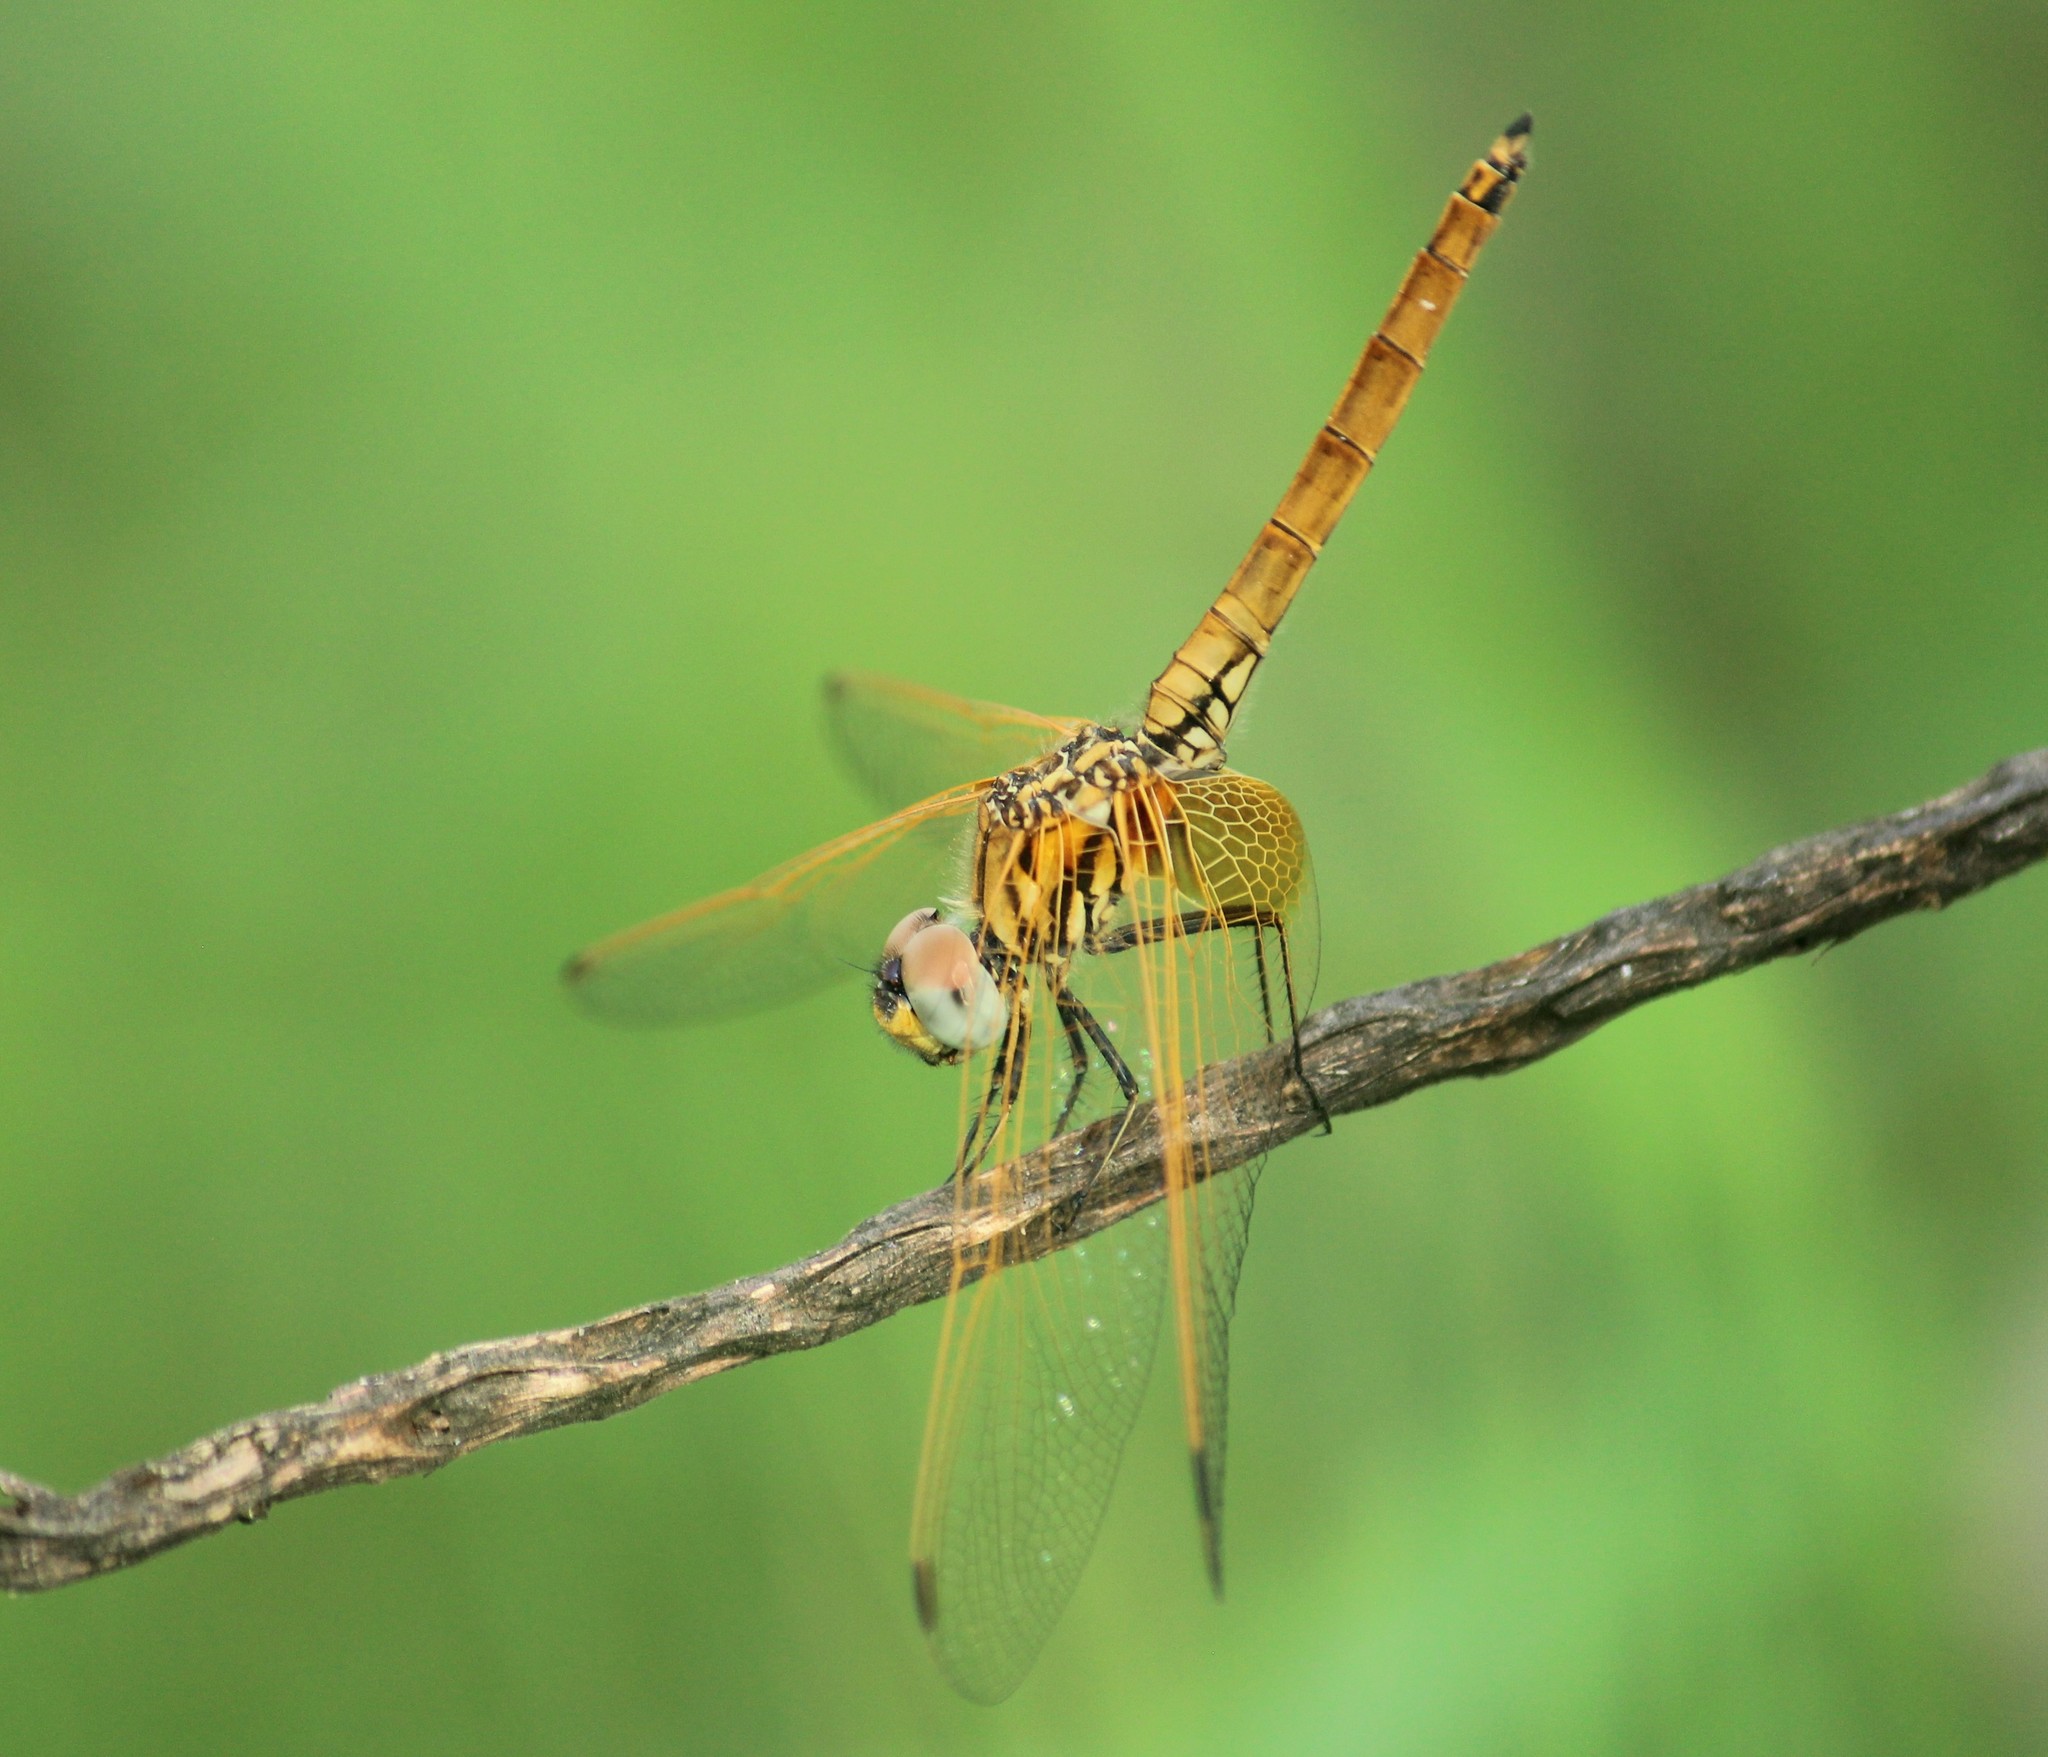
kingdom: Animalia
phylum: Arthropoda
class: Insecta
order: Odonata
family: Libellulidae
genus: Trithemis
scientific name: Trithemis aurora
